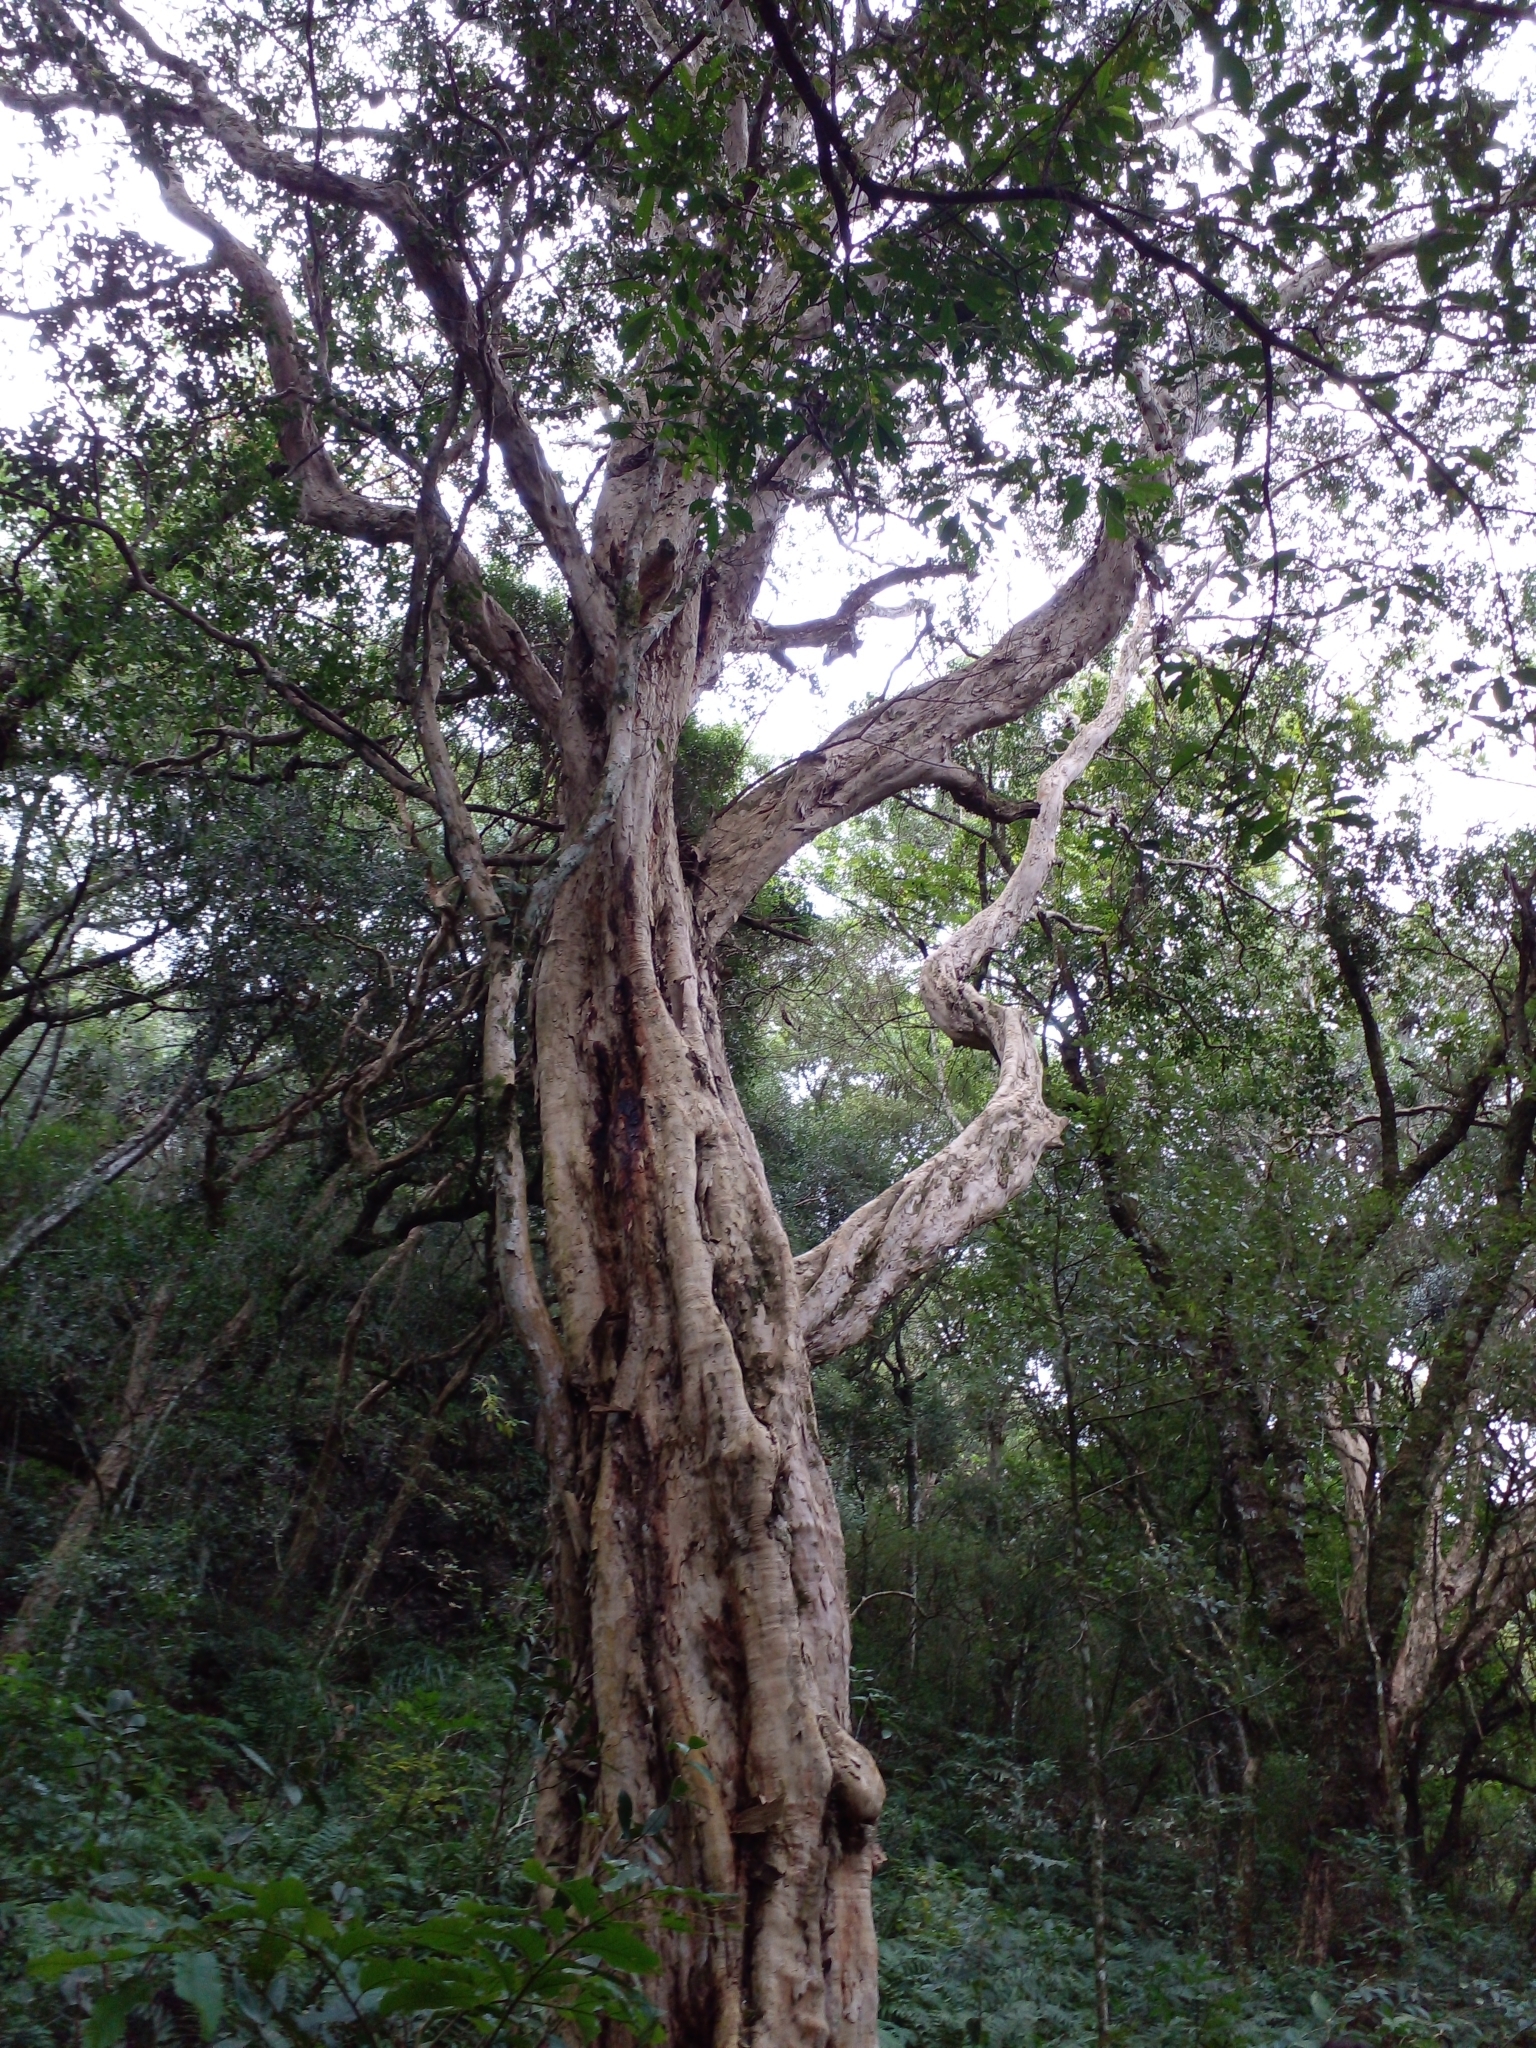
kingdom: Plantae
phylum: Tracheophyta
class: Magnoliopsida
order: Myrtales
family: Myrtaceae
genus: Myrcianthes
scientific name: Myrcianthes pungens
